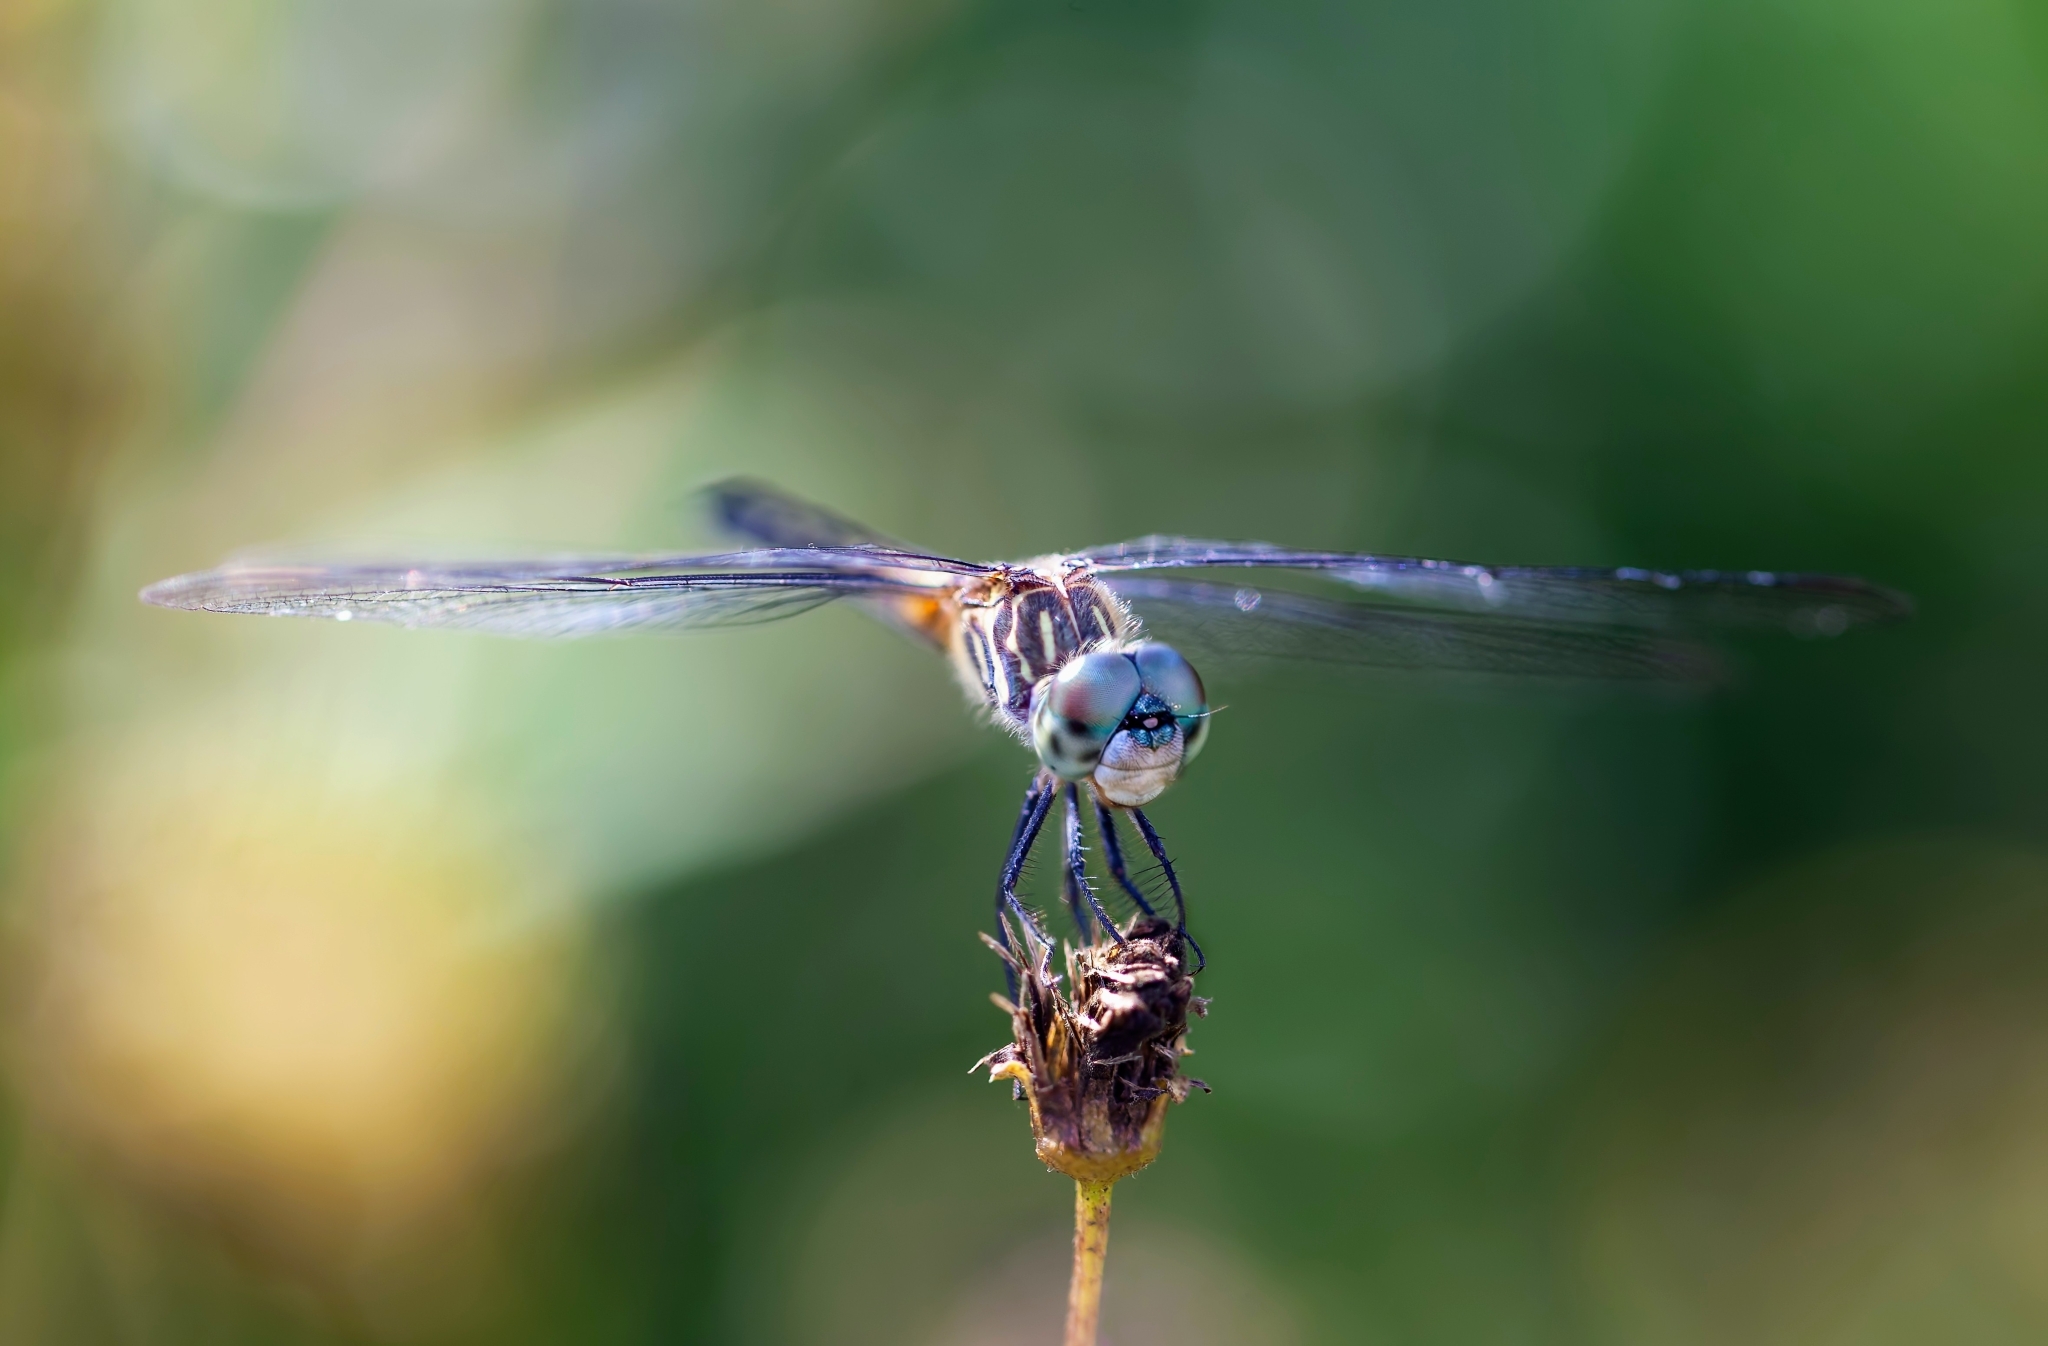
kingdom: Animalia
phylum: Arthropoda
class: Insecta
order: Odonata
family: Libellulidae
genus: Pachydiplax
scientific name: Pachydiplax longipennis
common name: Blue dasher
